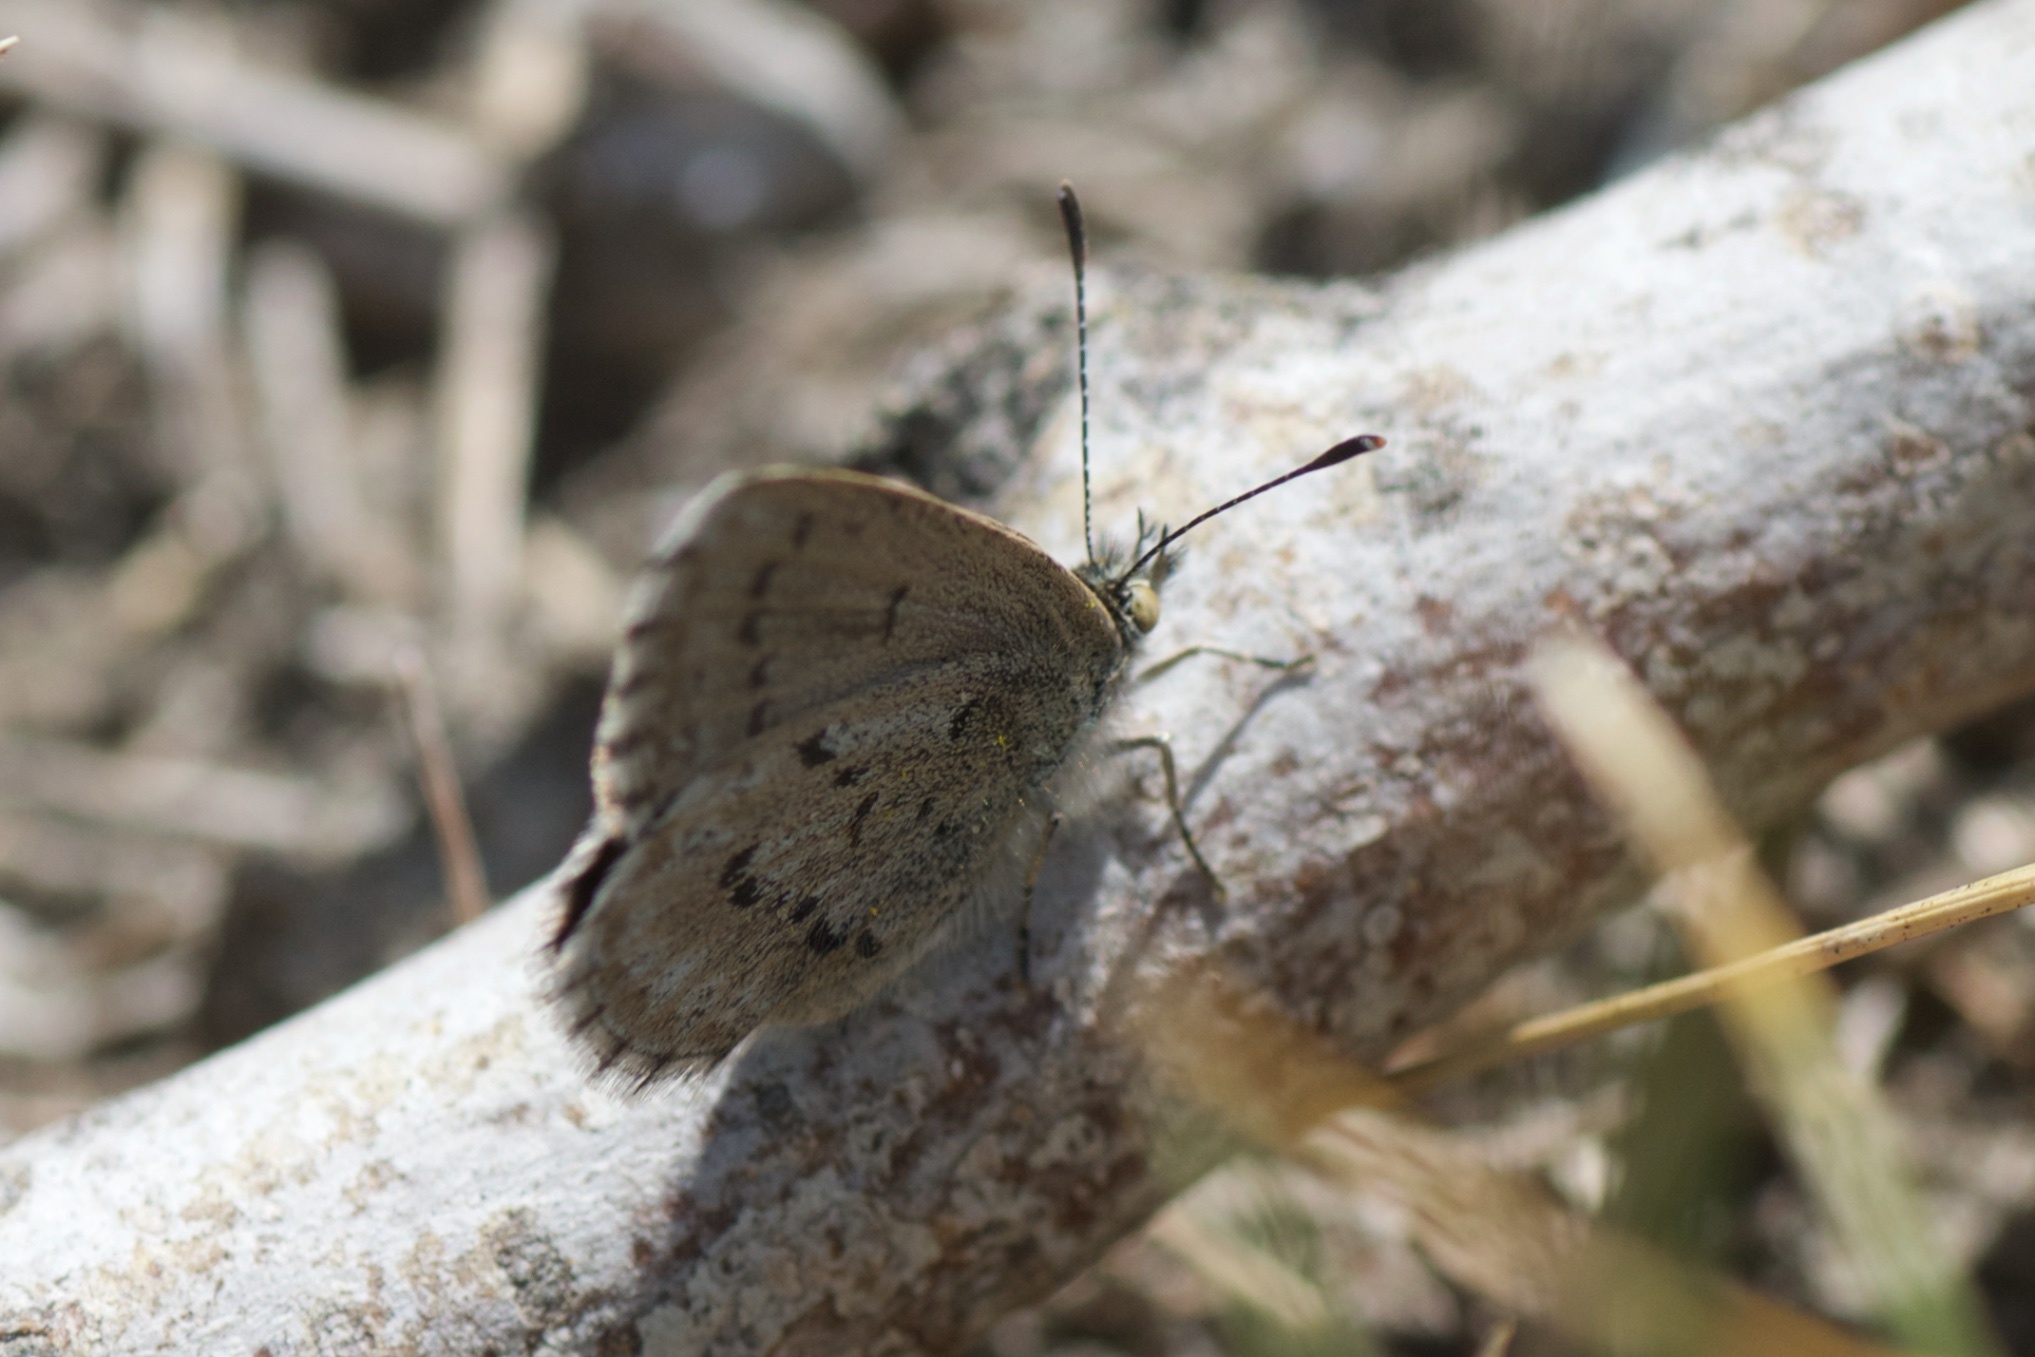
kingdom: Animalia
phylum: Arthropoda
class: Insecta
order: Lepidoptera
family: Lycaenidae
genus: Zizina
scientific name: Zizina oxleyi
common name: Southern blue
